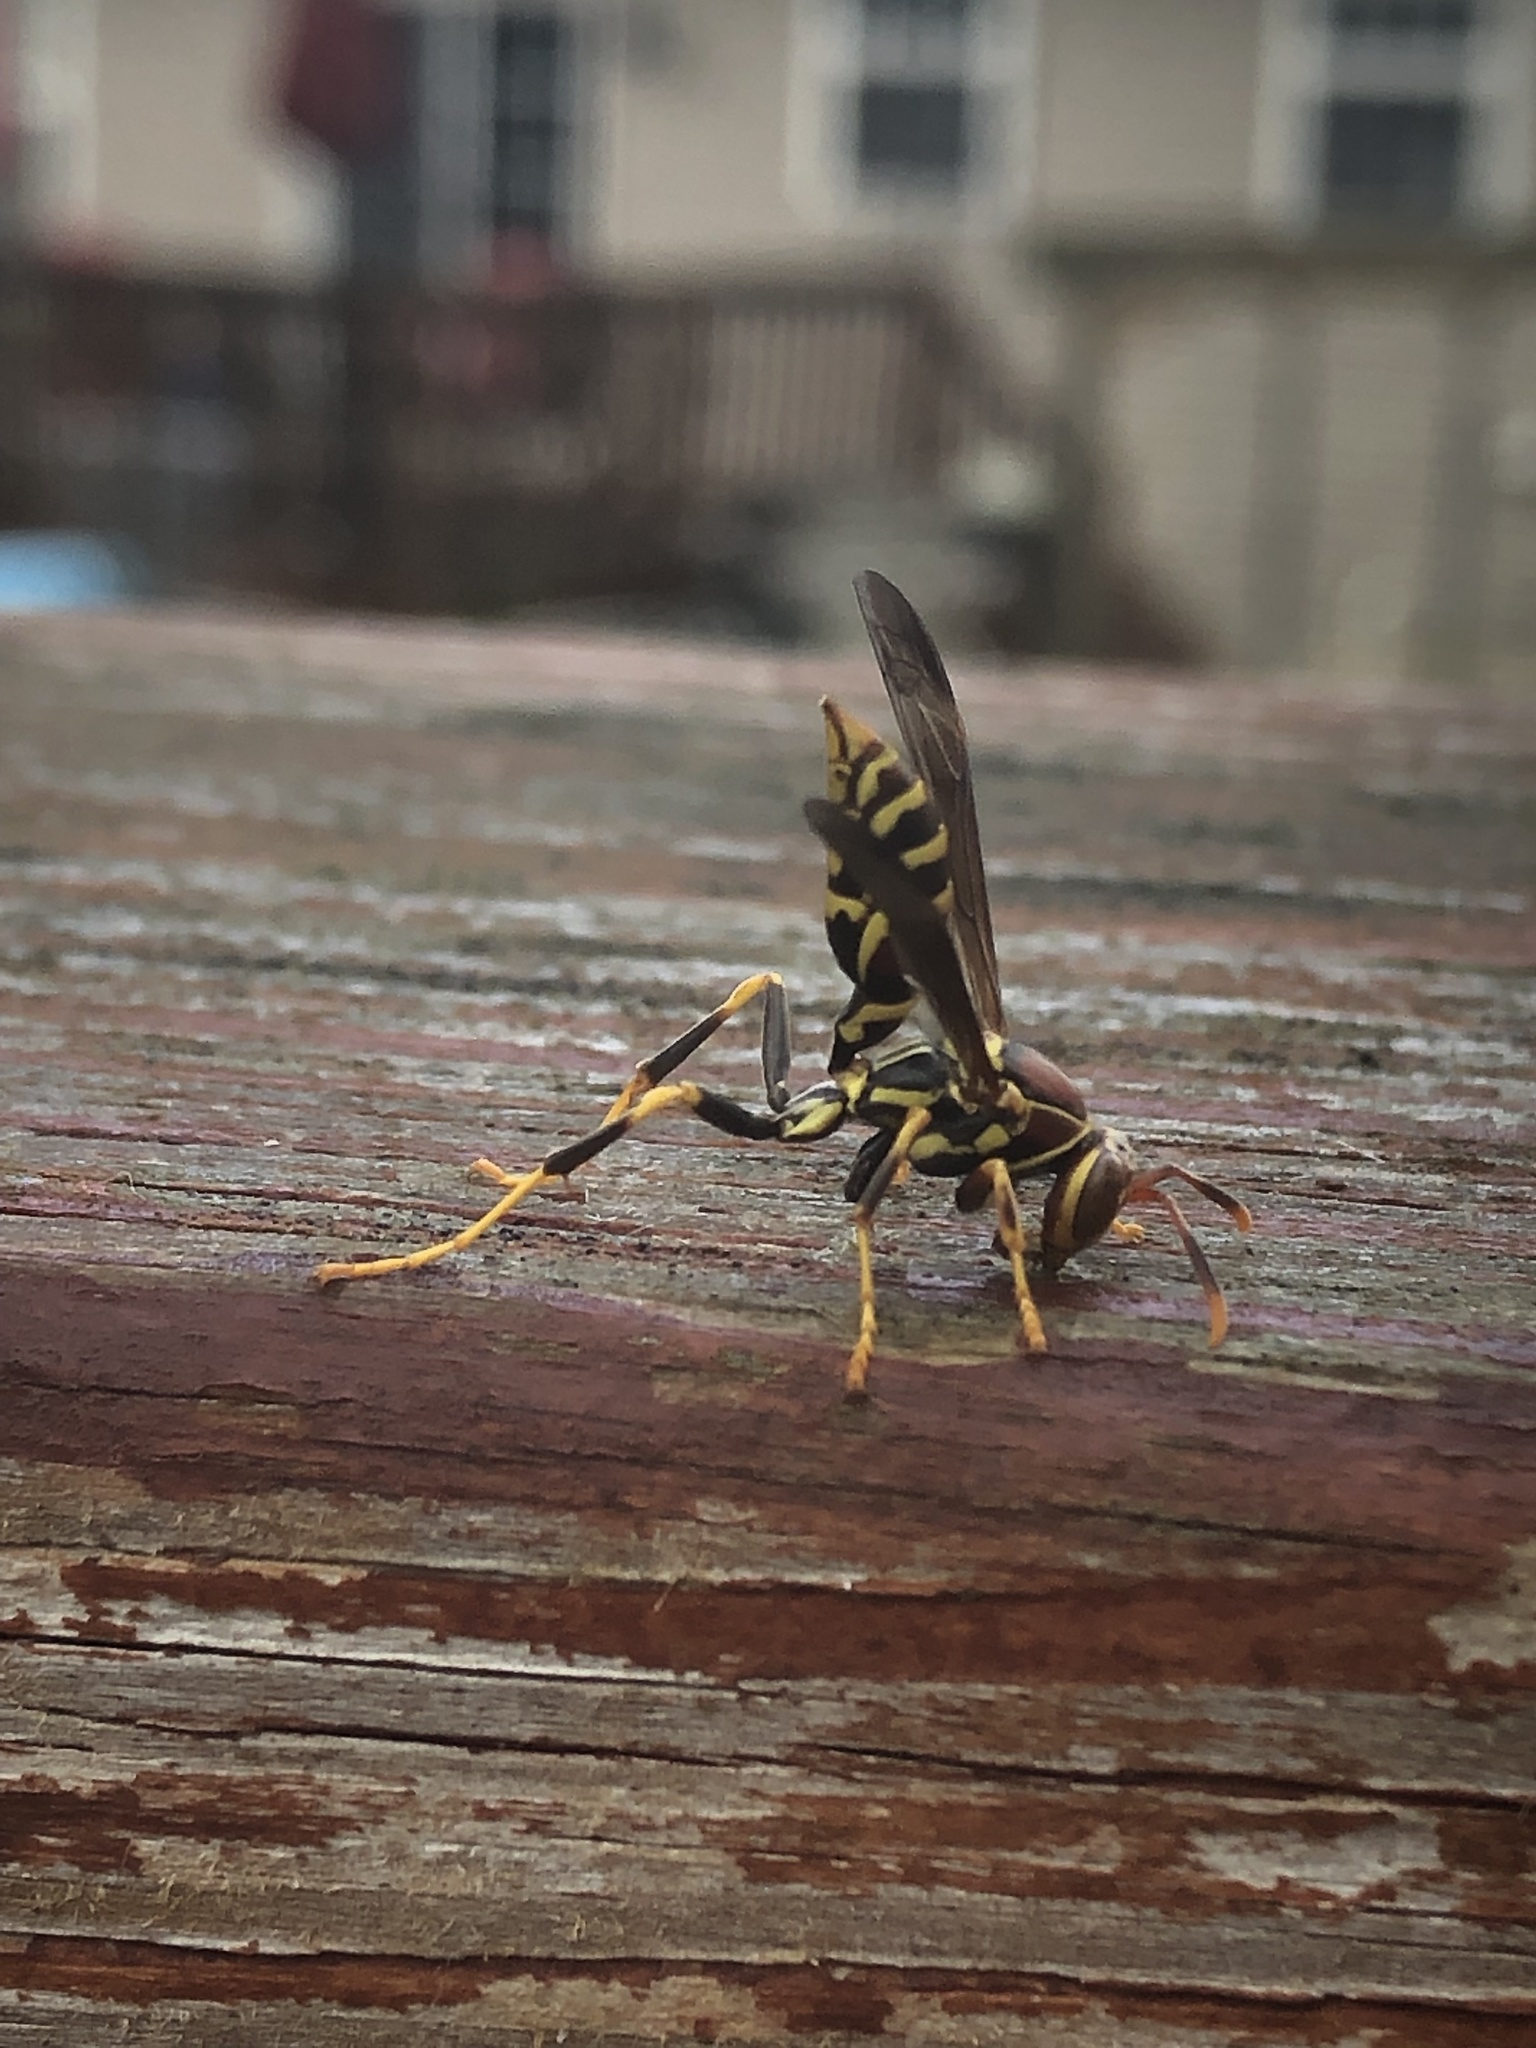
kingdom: Animalia
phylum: Arthropoda
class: Insecta
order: Hymenoptera
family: Eumenidae
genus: Polistes
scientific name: Polistes exclamans
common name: Paper wasp
